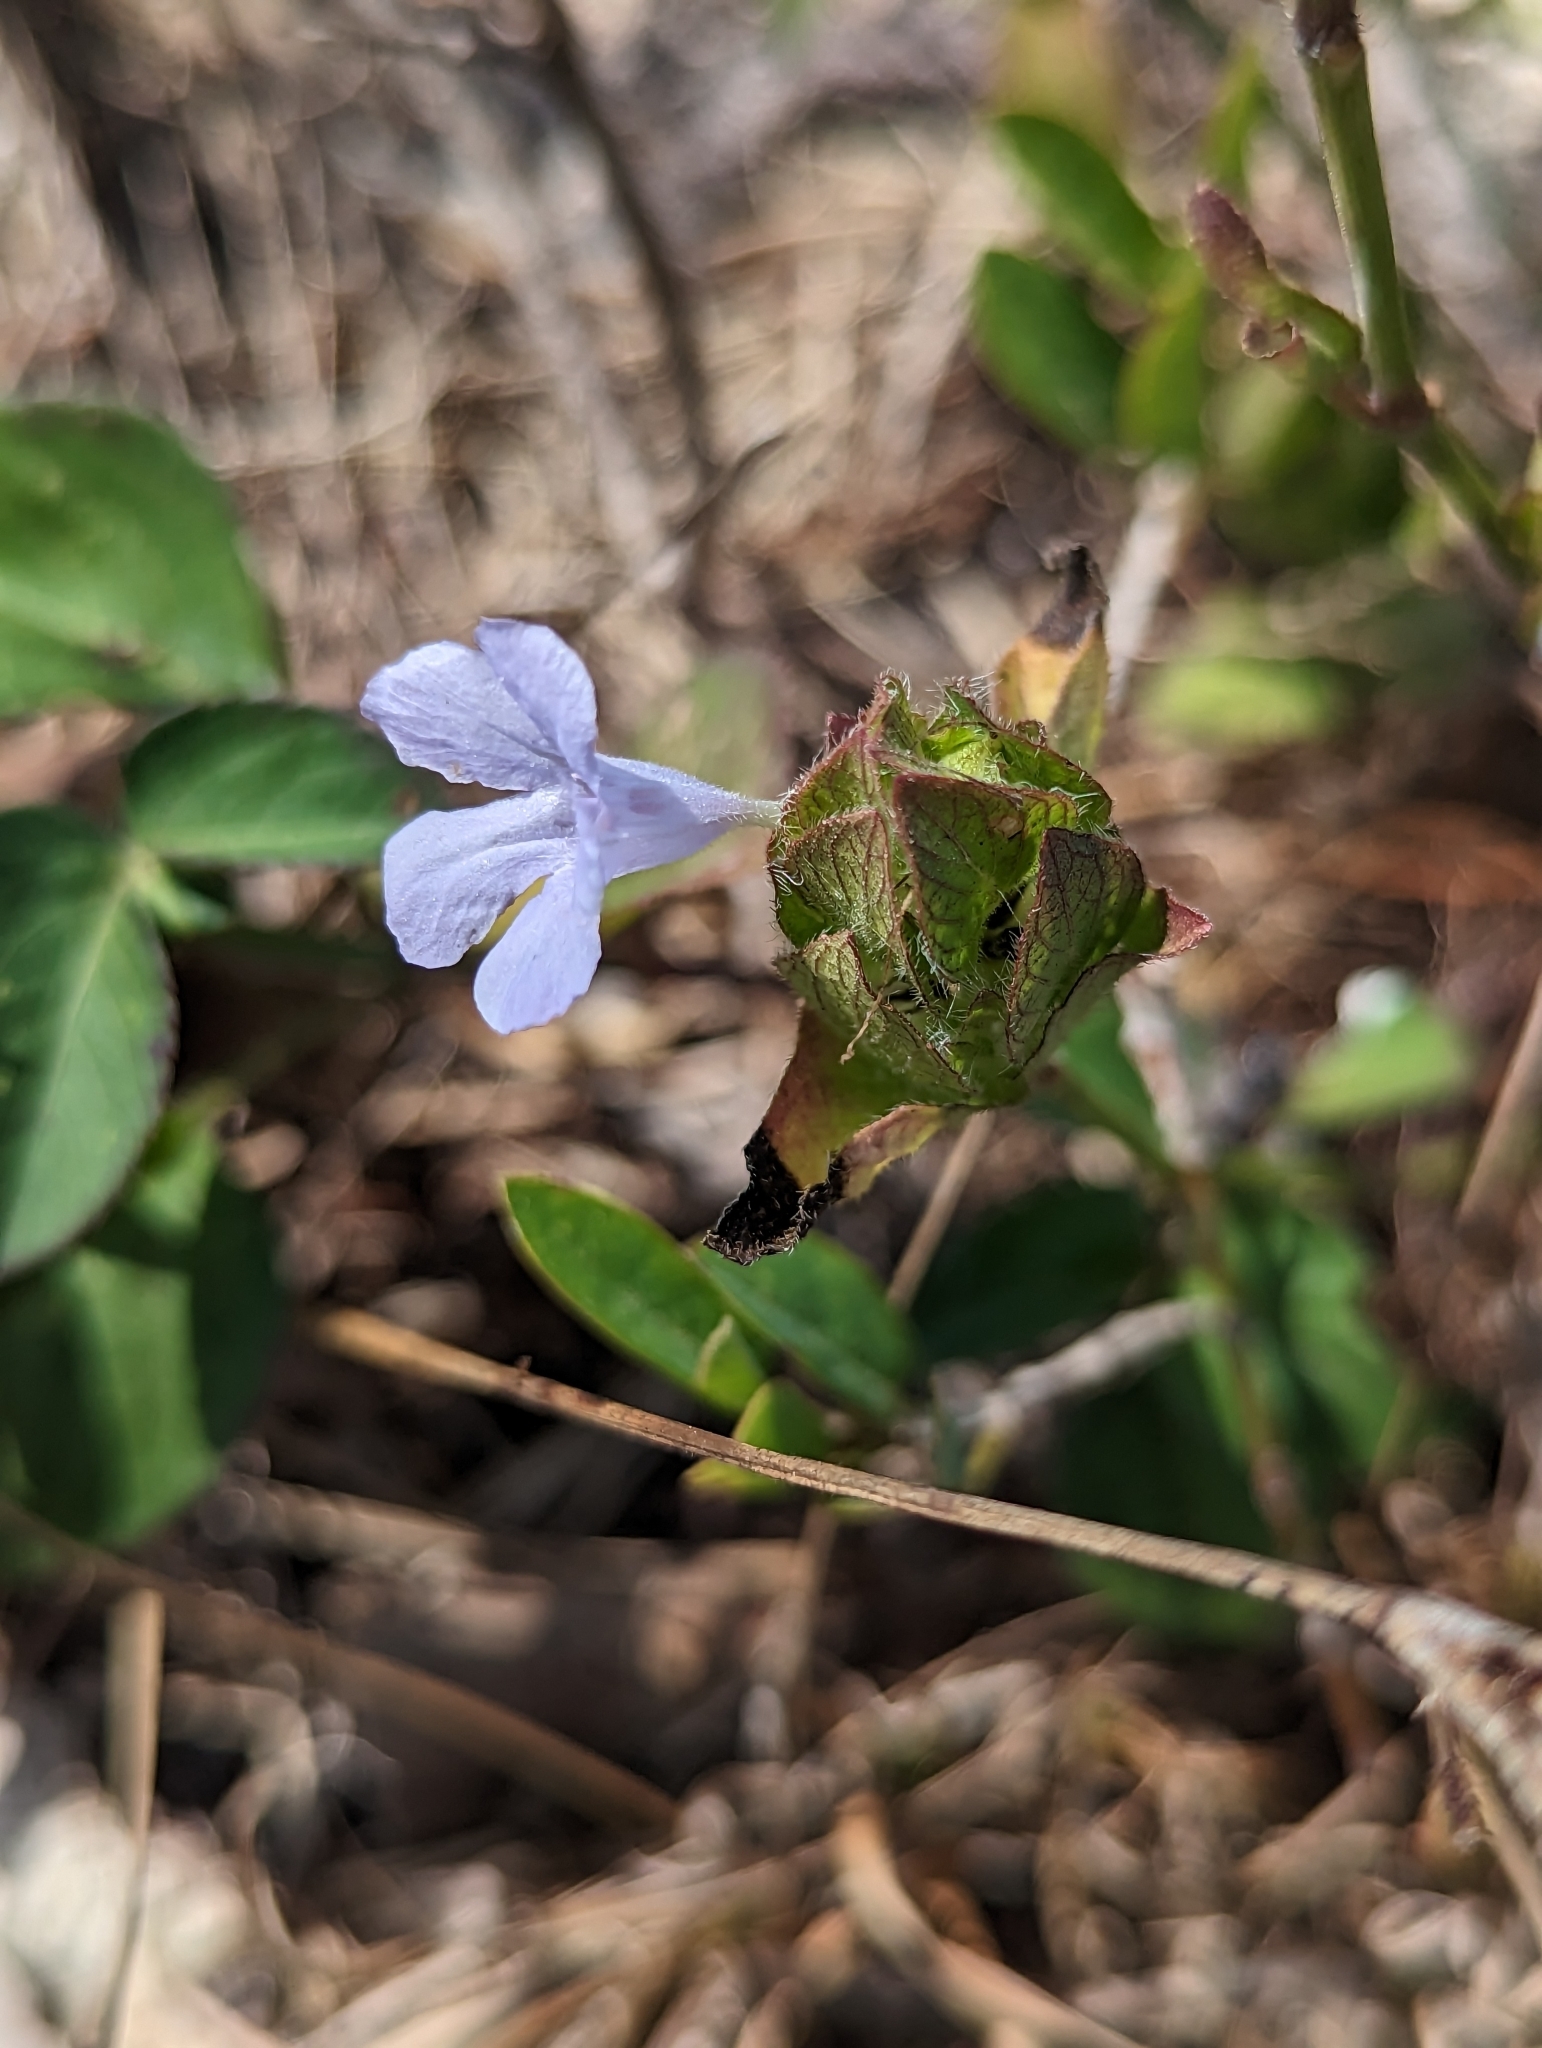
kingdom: Plantae
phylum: Tracheophyta
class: Magnoliopsida
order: Lamiales
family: Acanthaceae
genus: Ruellia
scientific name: Ruellia blechum
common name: Browne's blechum
